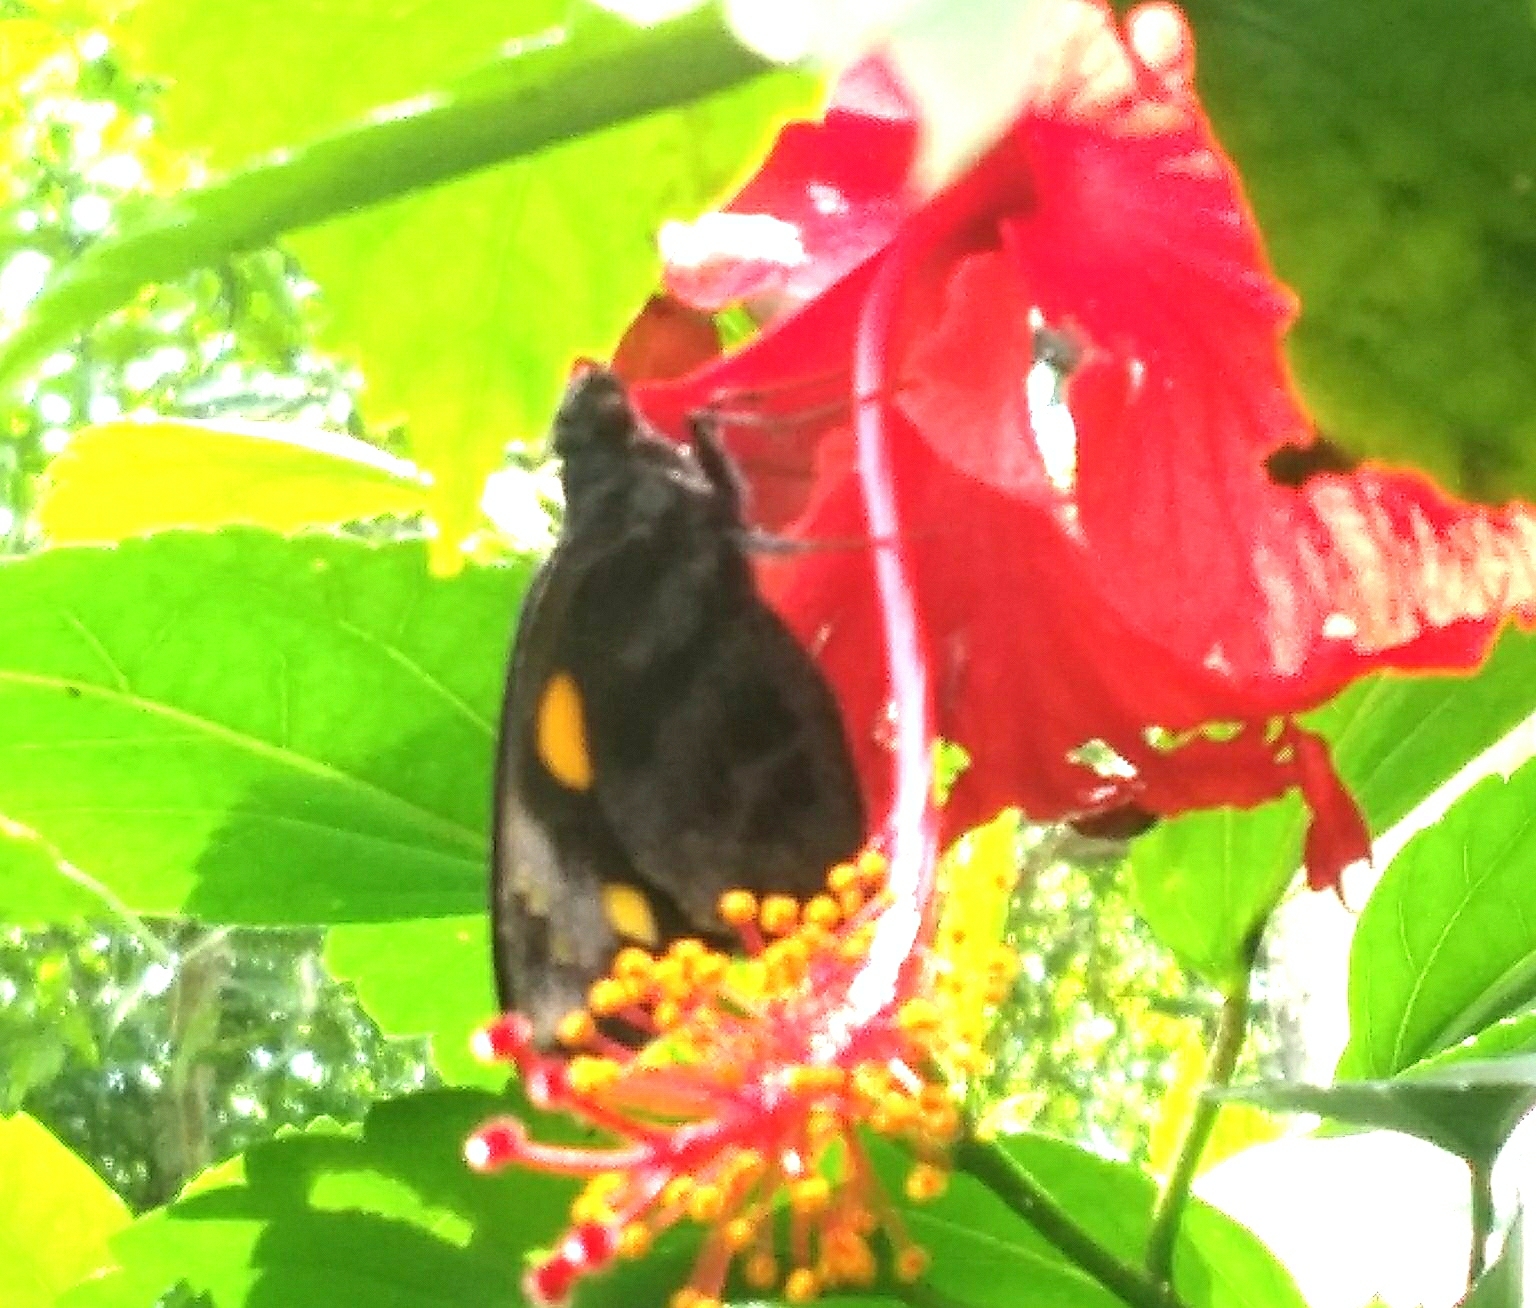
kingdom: Animalia
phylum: Arthropoda
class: Insecta
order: Lepidoptera
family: Hesperiidae
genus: Gangara
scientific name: Gangara thyrsis
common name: Giant redeye
